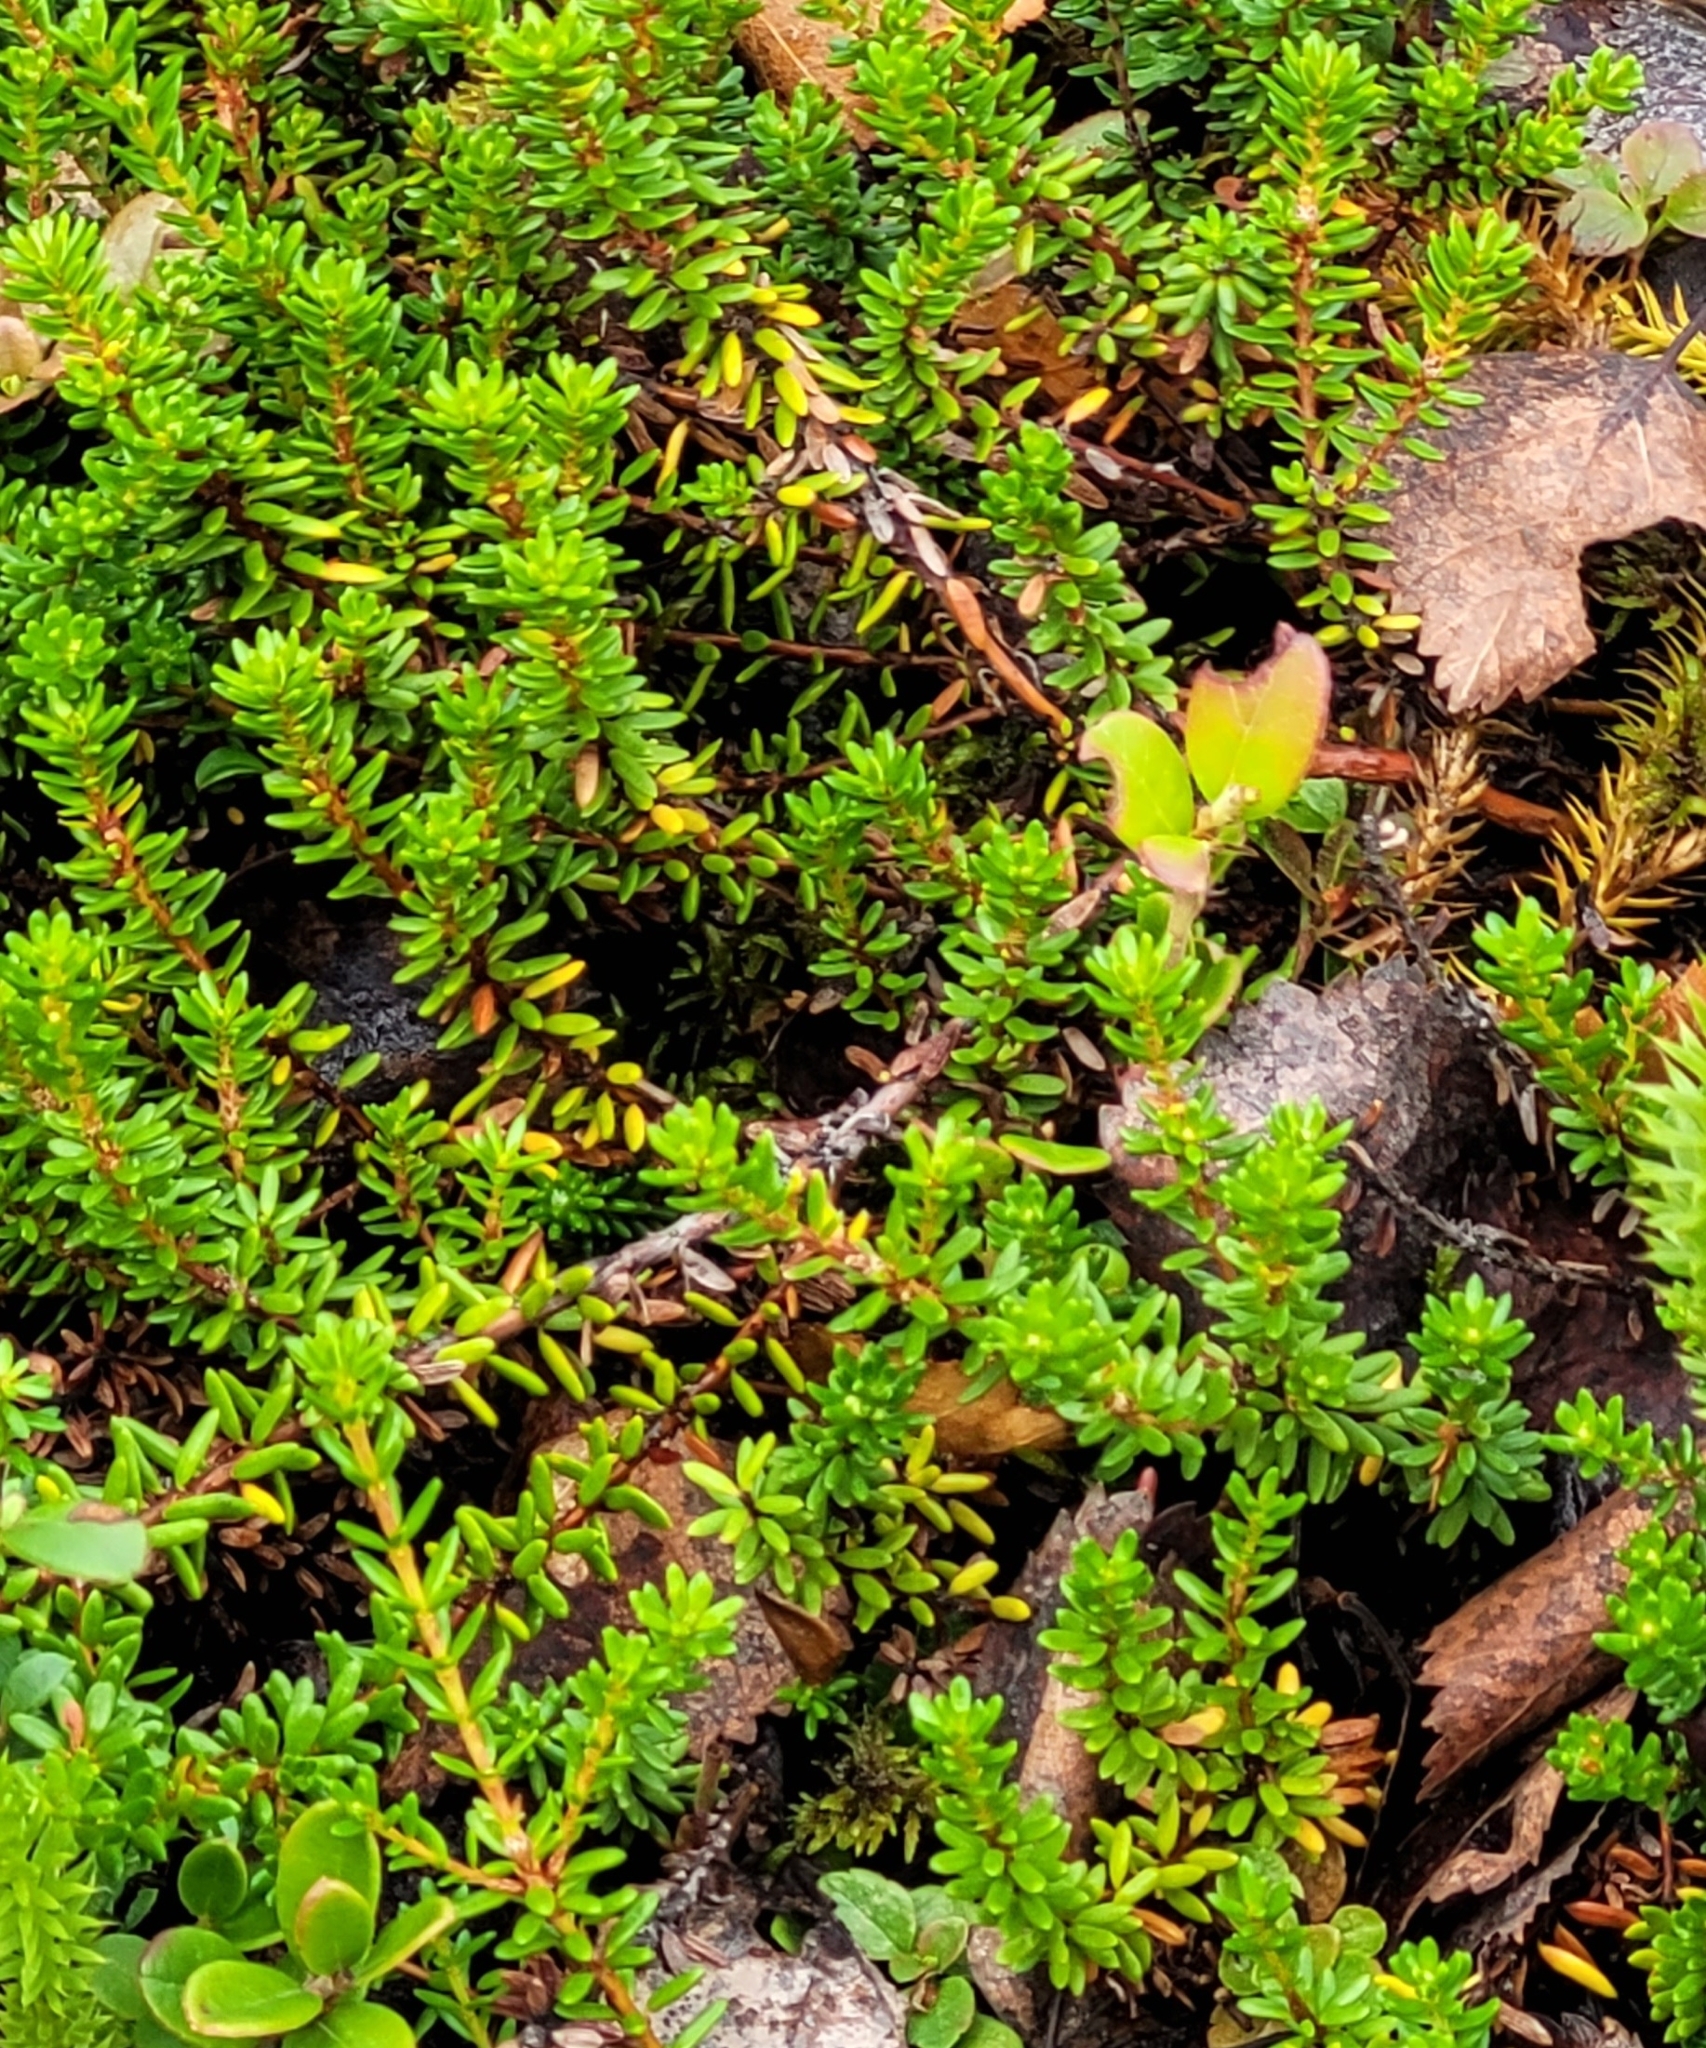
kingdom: Plantae
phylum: Tracheophyta
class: Magnoliopsida
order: Ericales
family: Ericaceae
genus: Empetrum
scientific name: Empetrum nigrum
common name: Black crowberry
